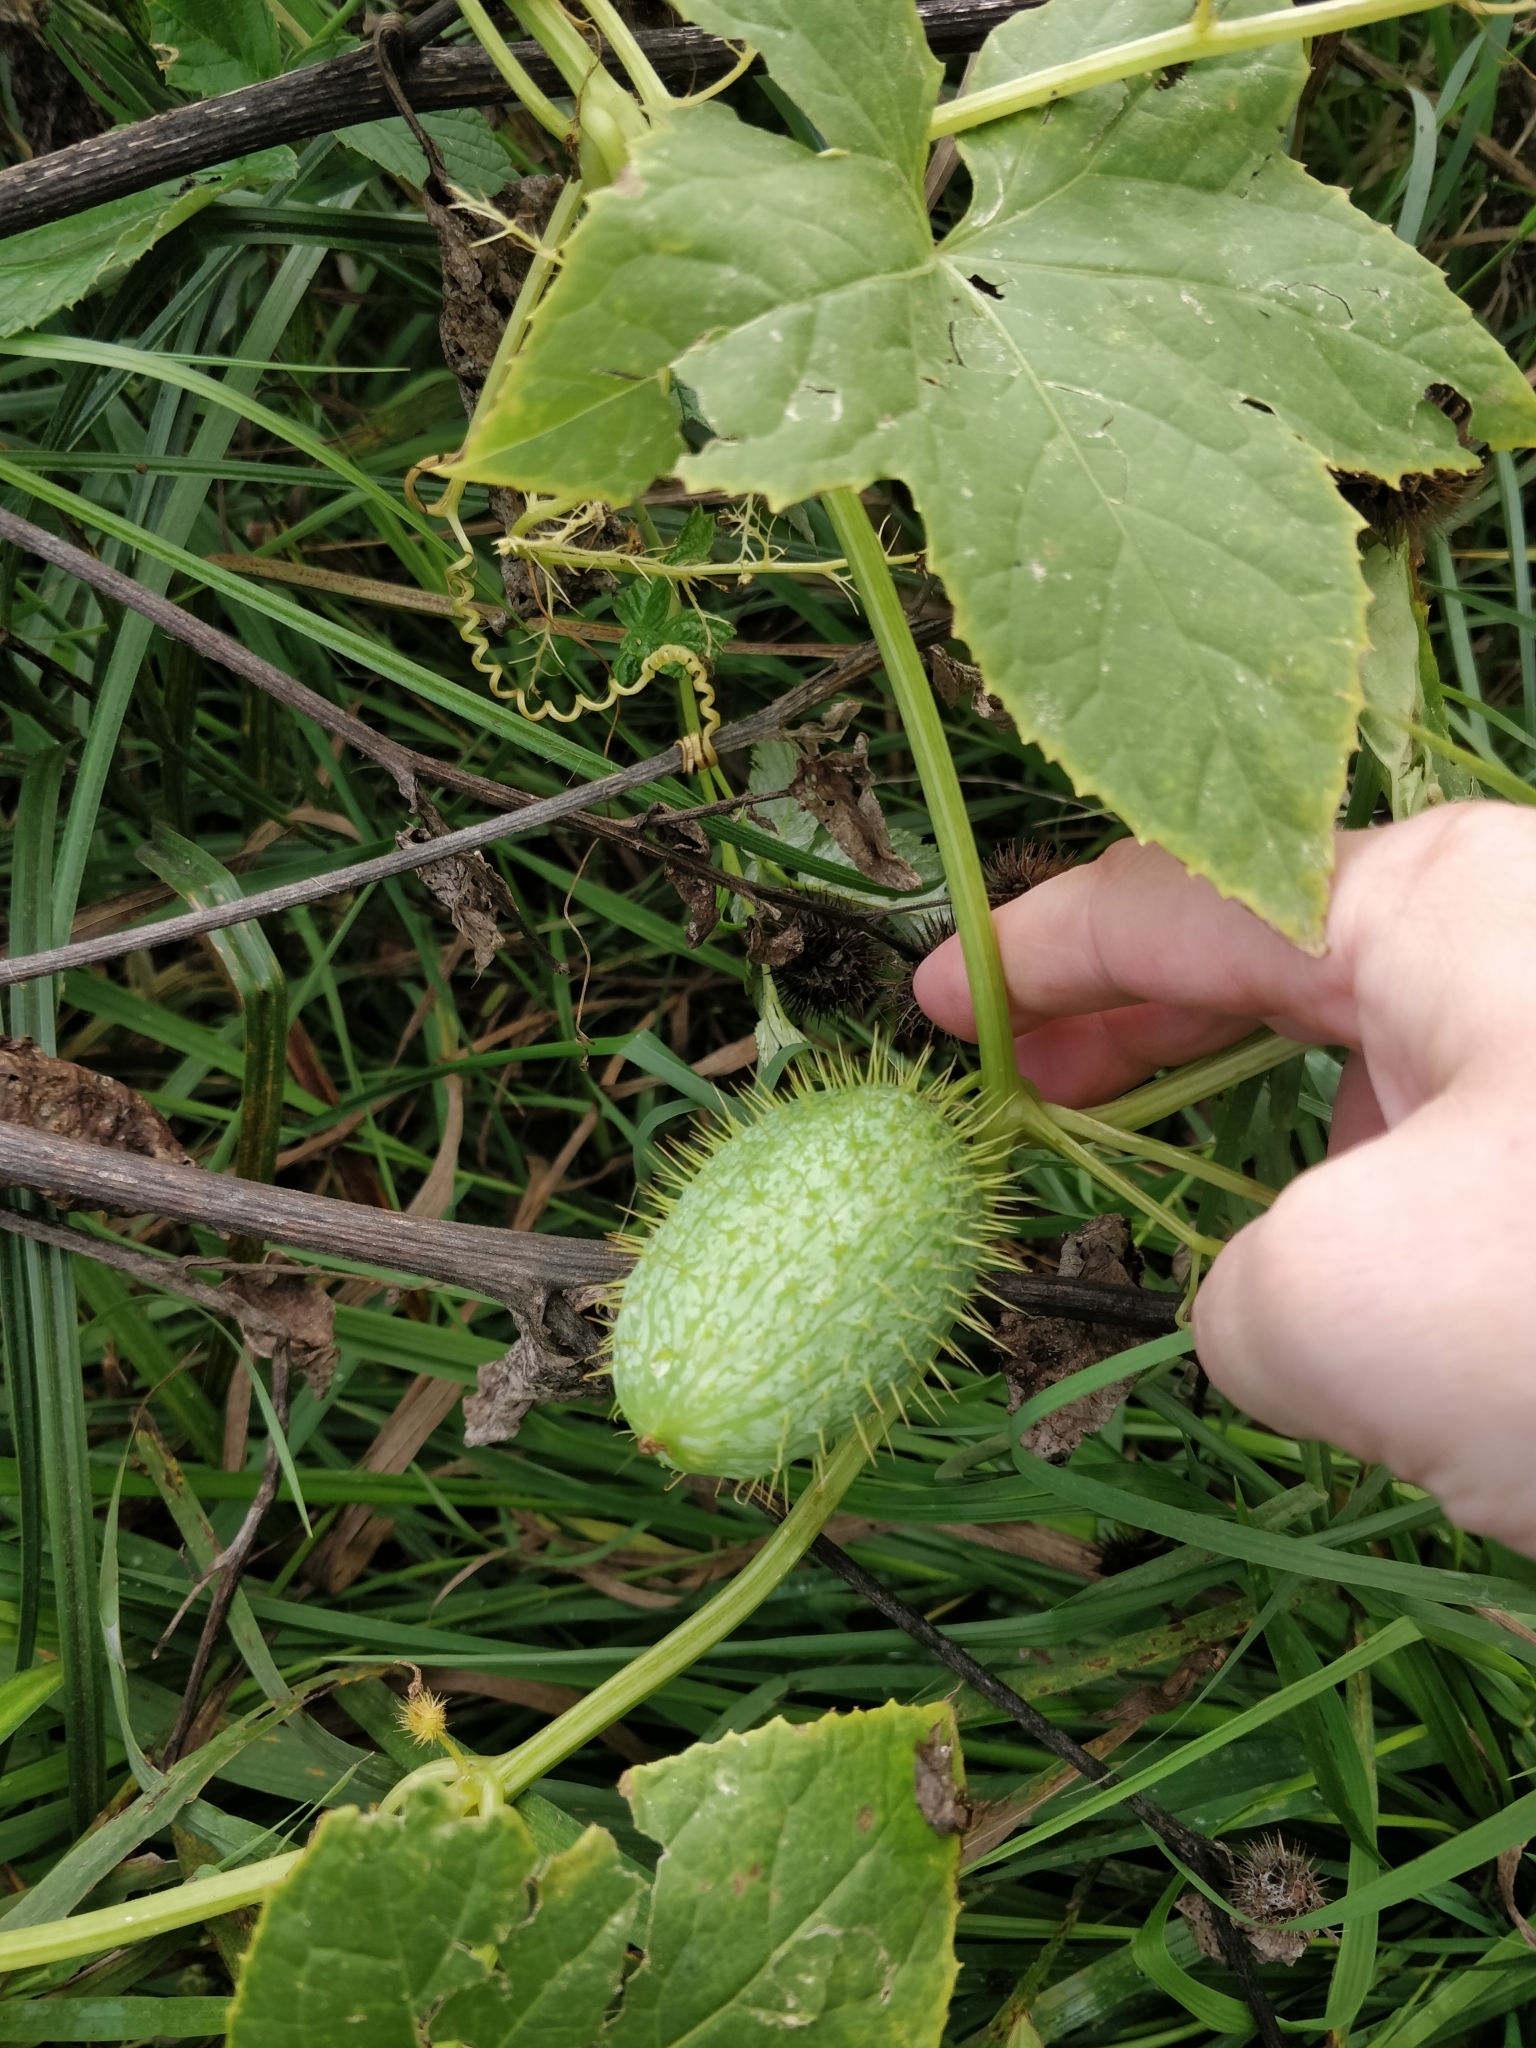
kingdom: Plantae
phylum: Tracheophyta
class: Magnoliopsida
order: Cucurbitales
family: Cucurbitaceae
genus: Echinocystis
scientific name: Echinocystis lobata
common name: Wild cucumber
